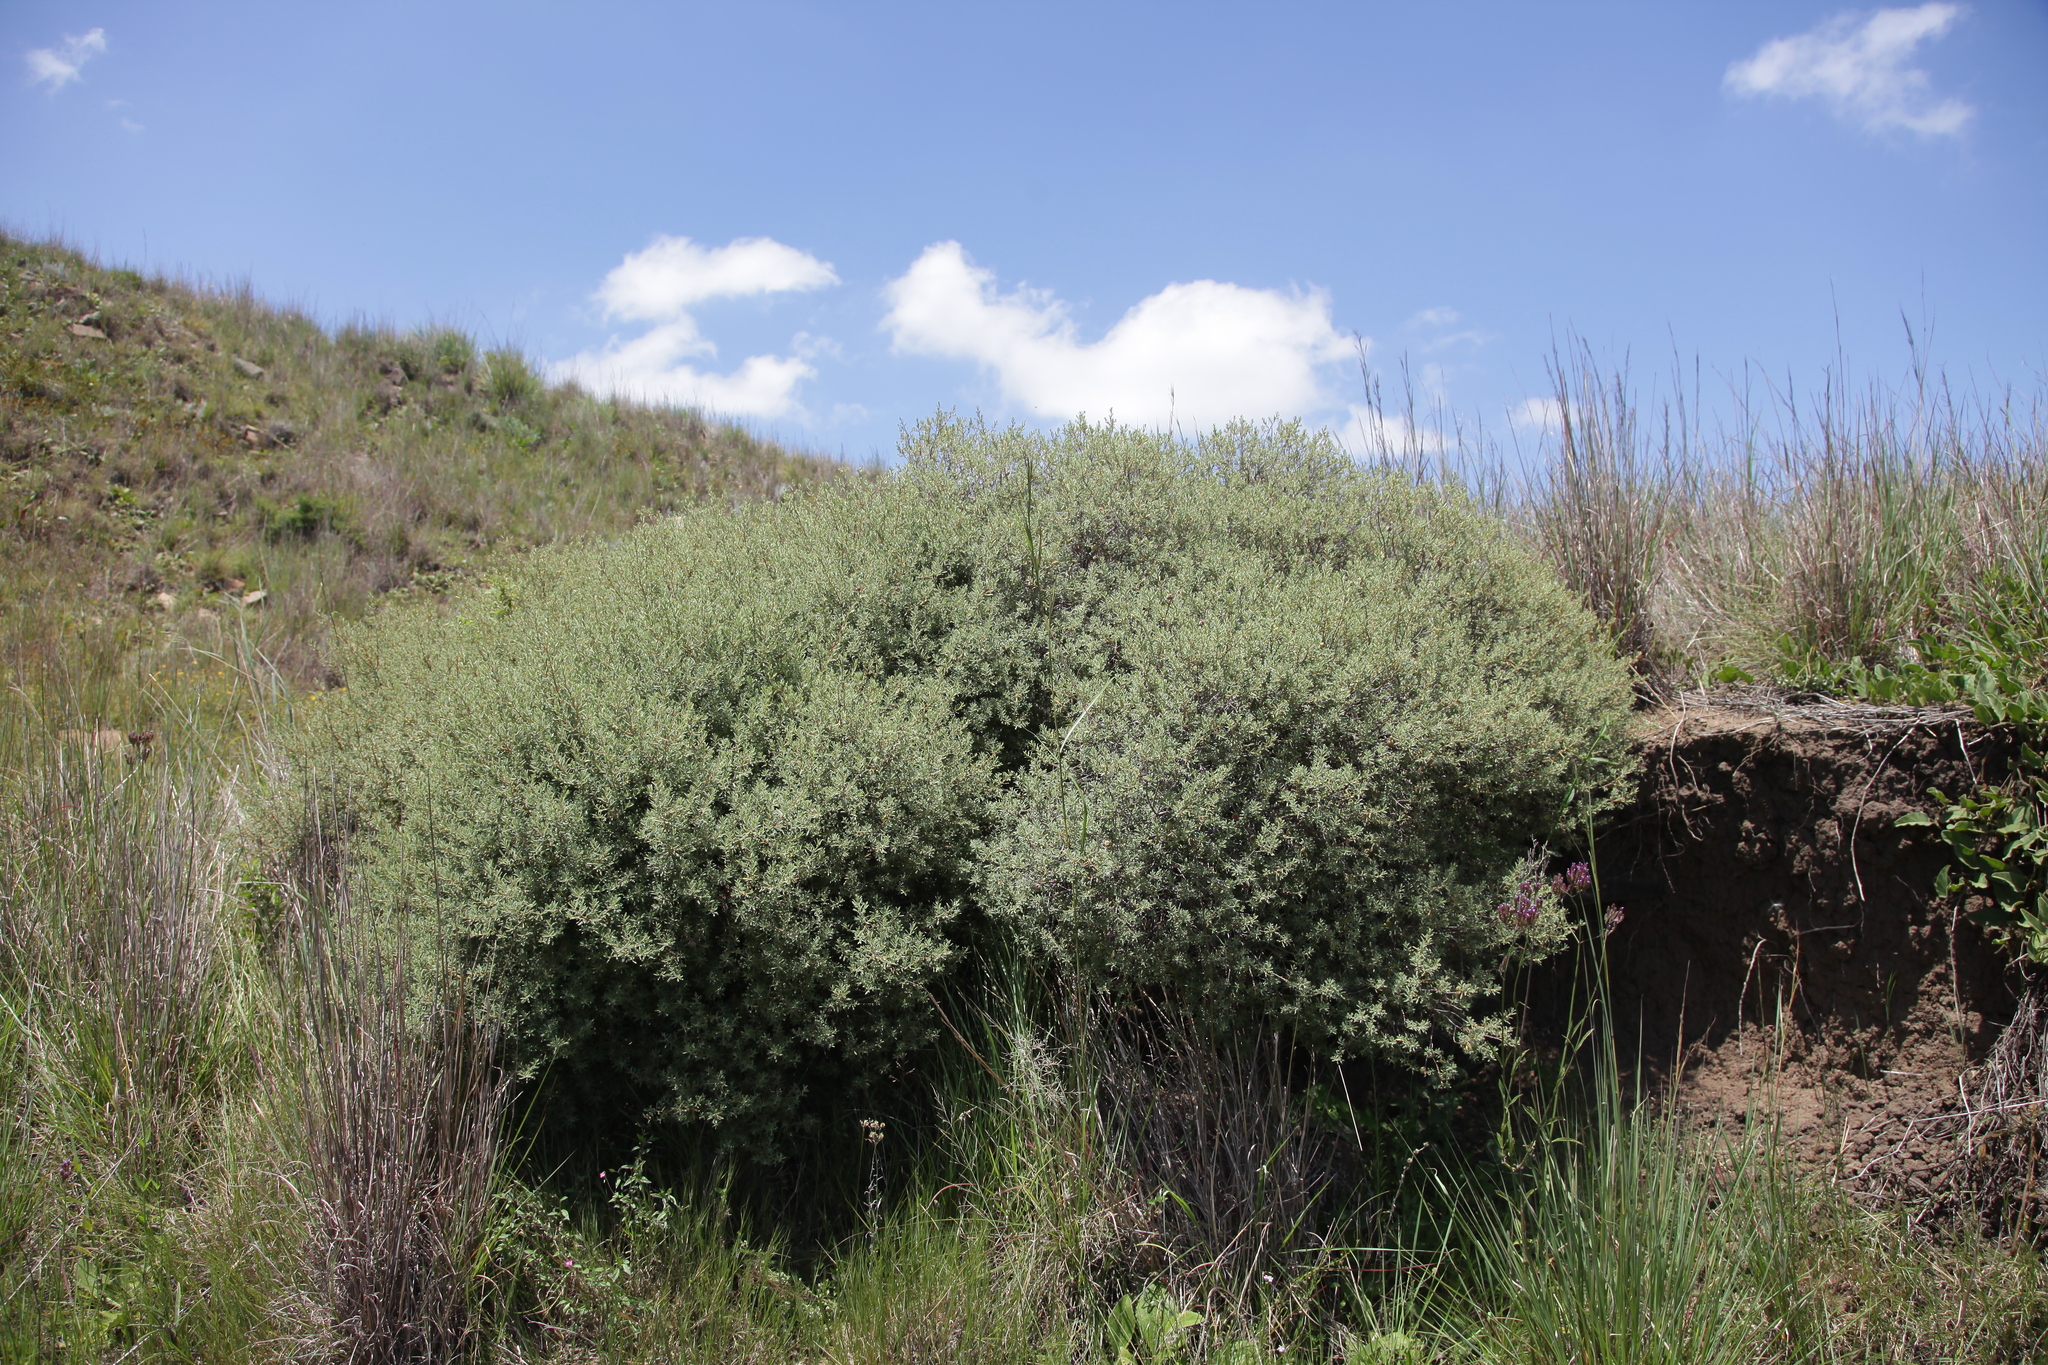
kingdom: Plantae
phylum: Tracheophyta
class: Magnoliopsida
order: Ericales
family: Ebenaceae
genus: Diospyros
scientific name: Diospyros pubescens
